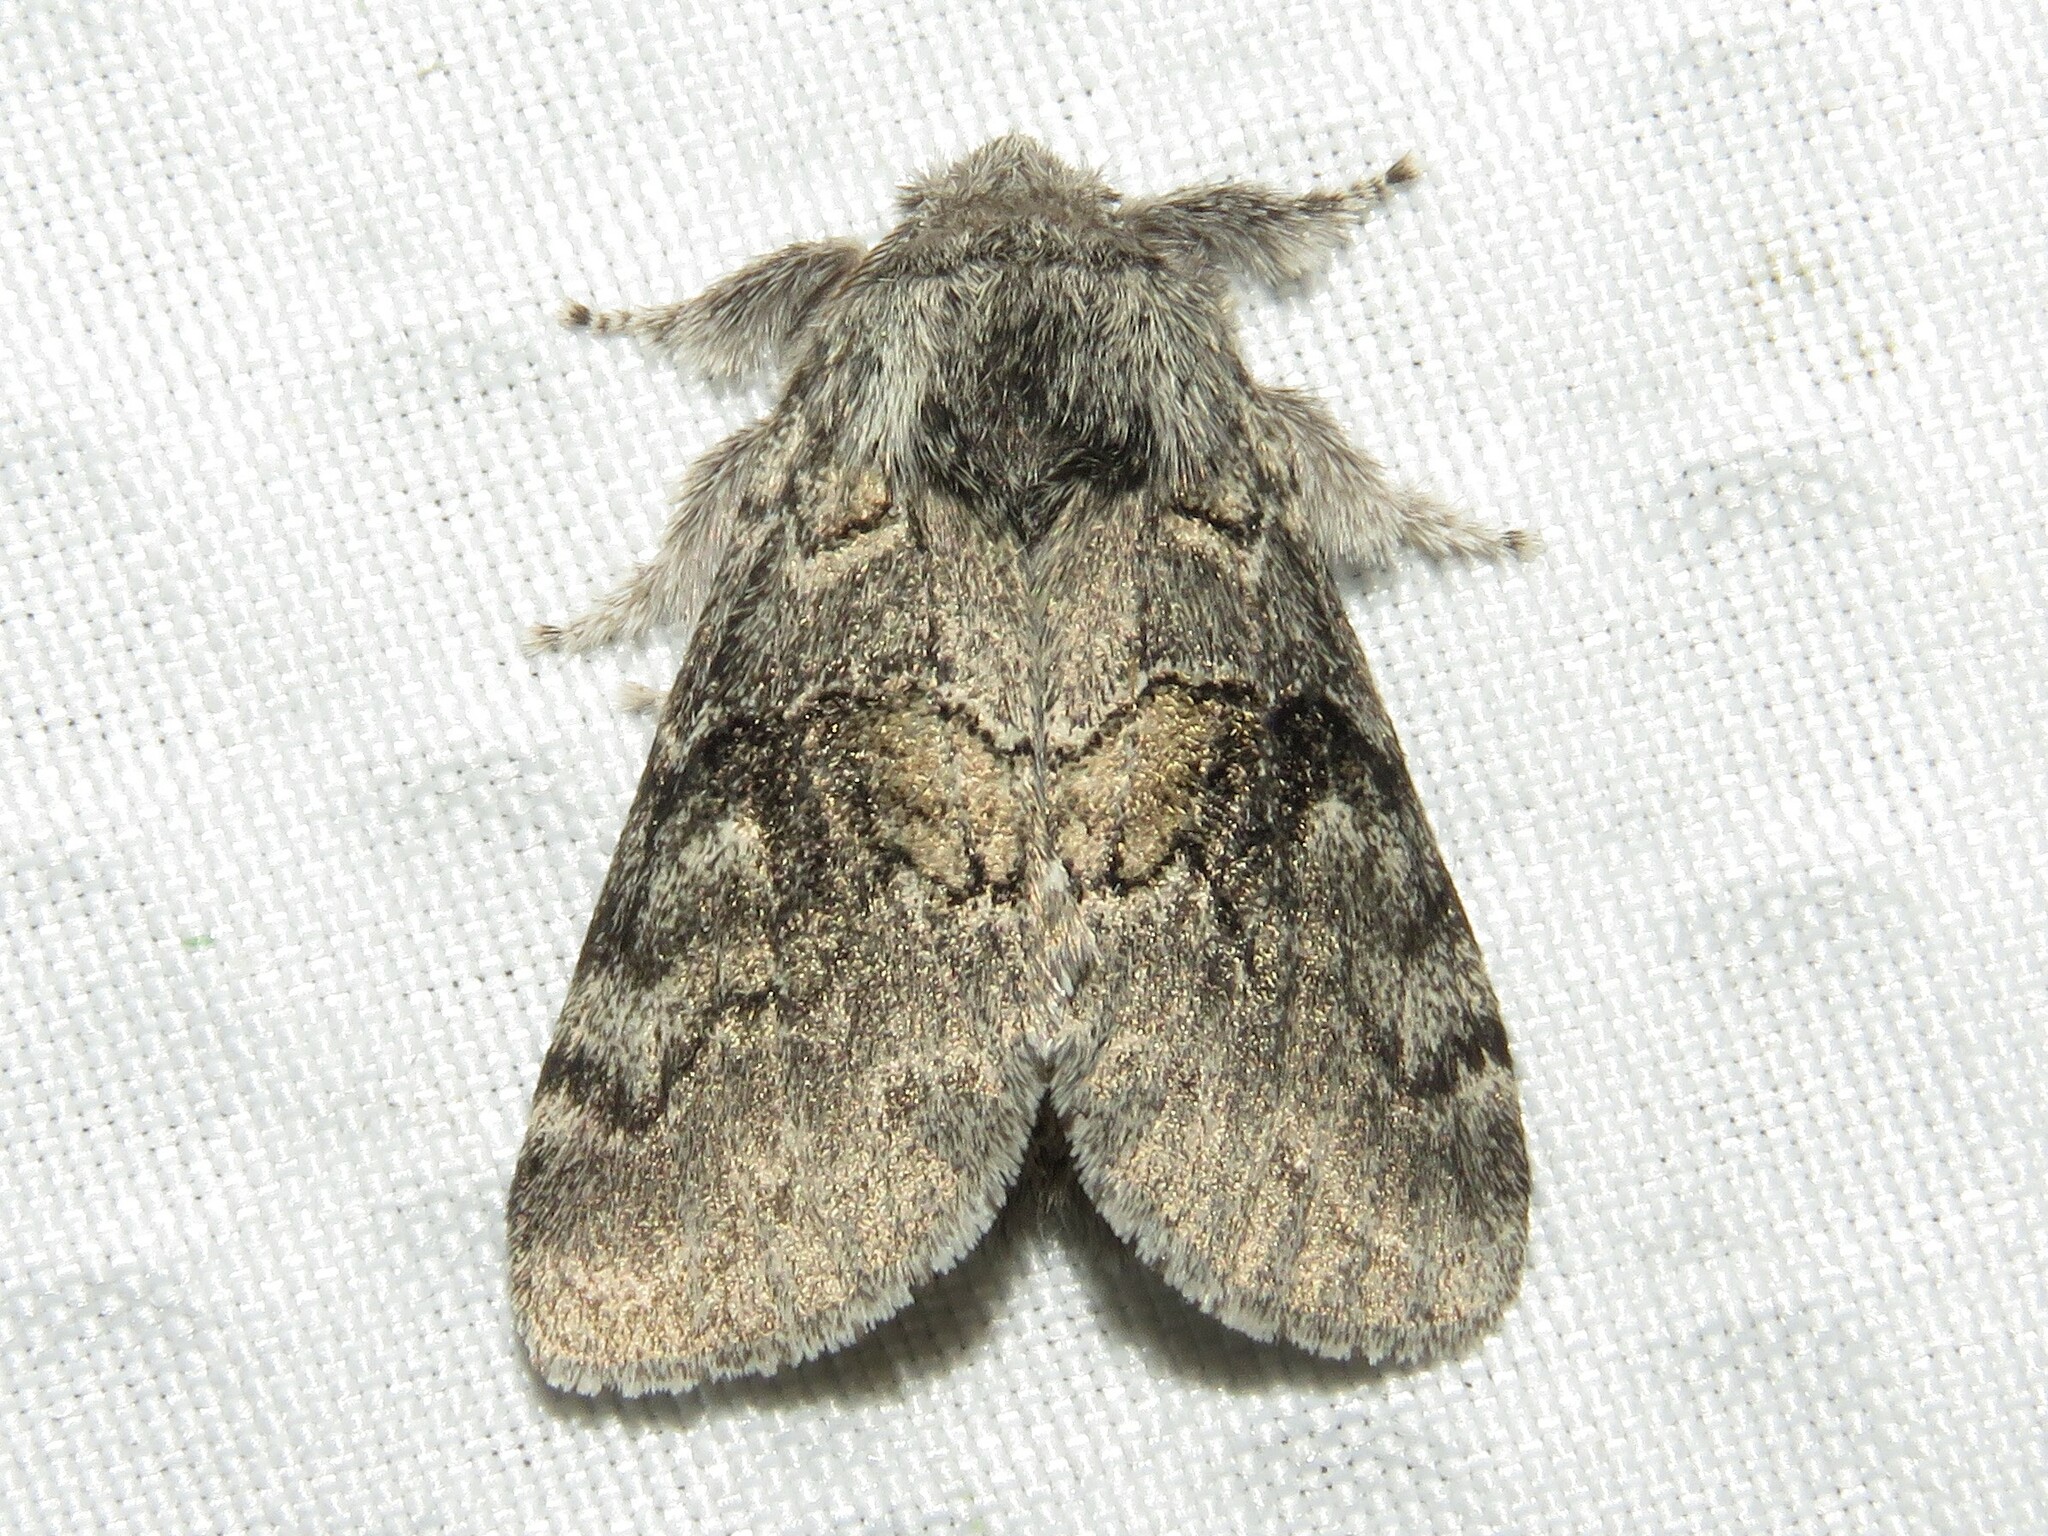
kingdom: Animalia
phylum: Arthropoda
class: Insecta
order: Lepidoptera
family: Notodontidae
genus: Gluphisia
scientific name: Gluphisia septentrionis
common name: Common gluphisia
